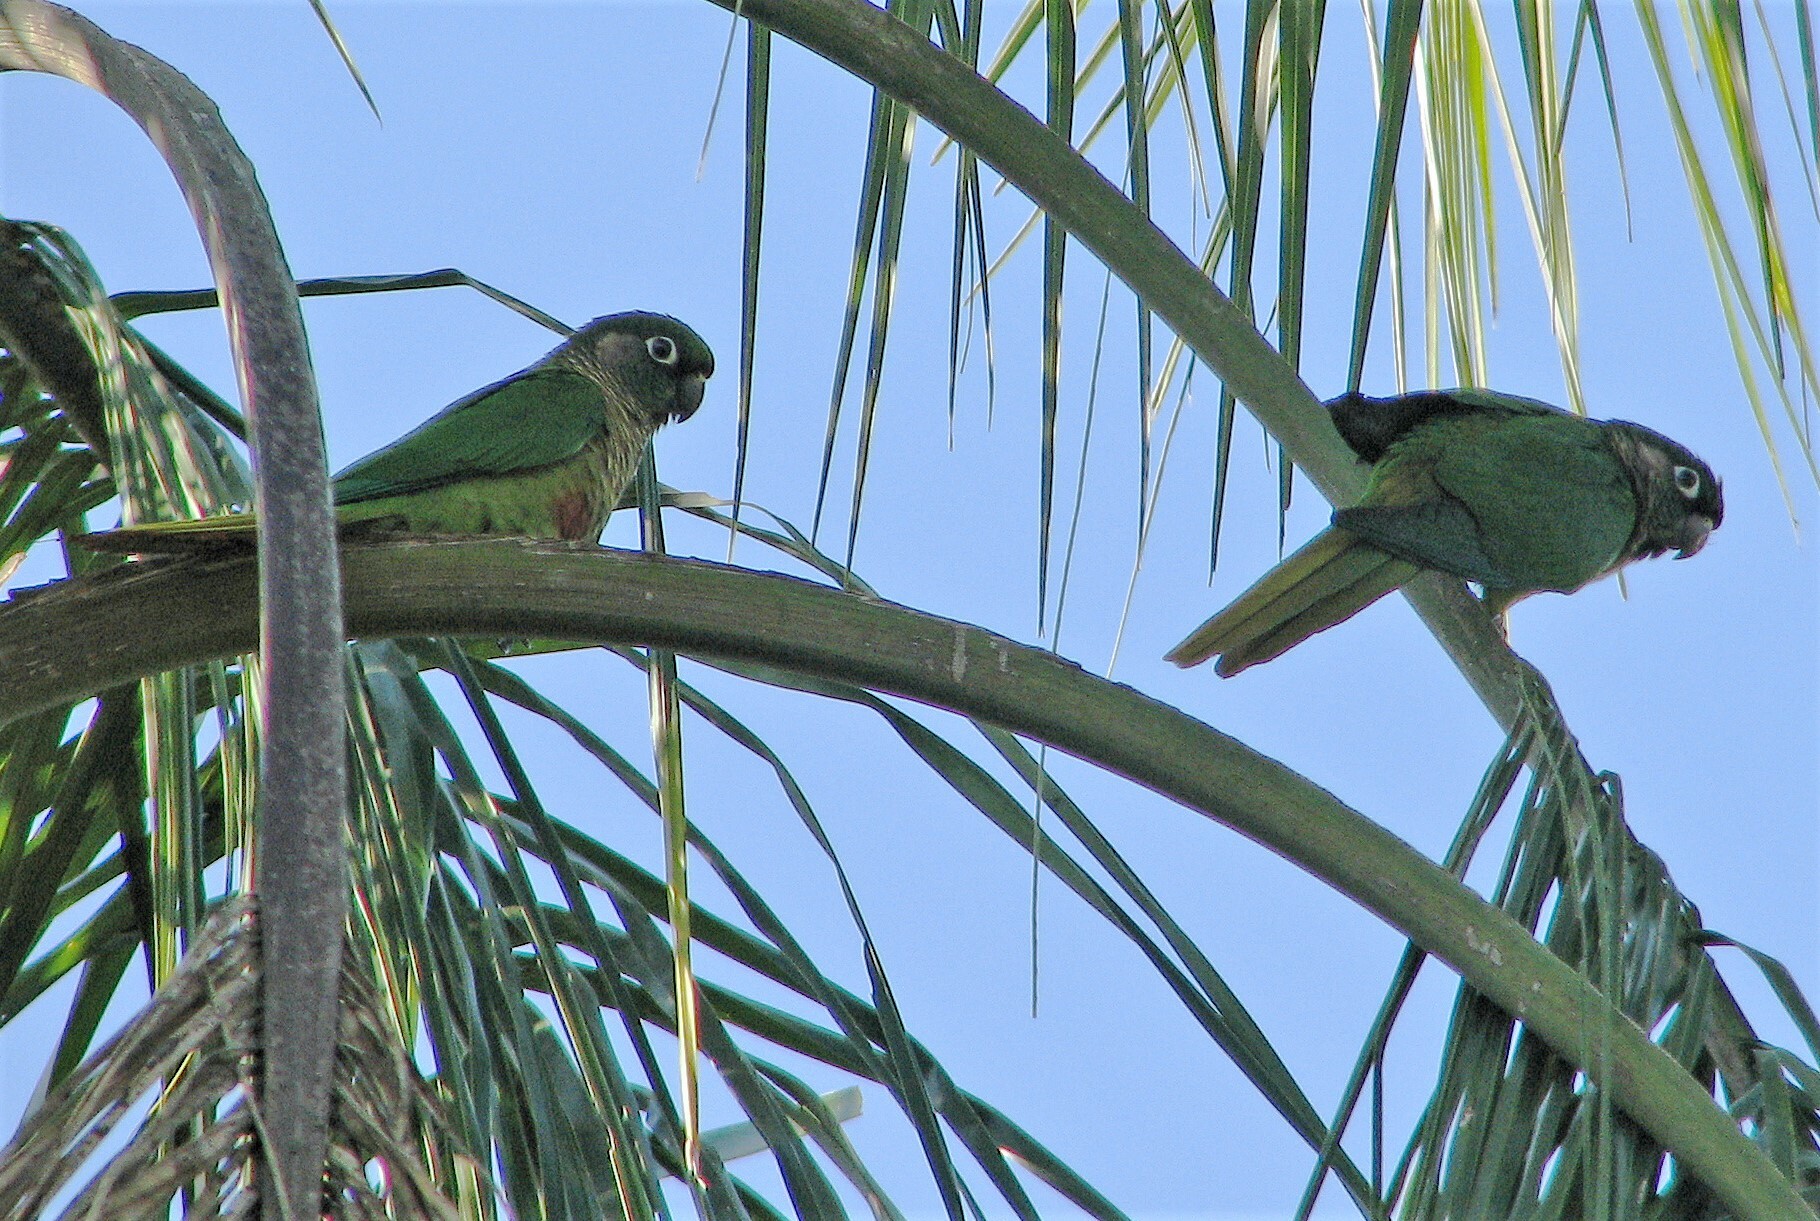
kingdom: Animalia
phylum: Chordata
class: Aves
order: Psittaciformes
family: Psittacidae
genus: Pyrrhura
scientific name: Pyrrhura frontalis
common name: Maroon-bellied parakeet
